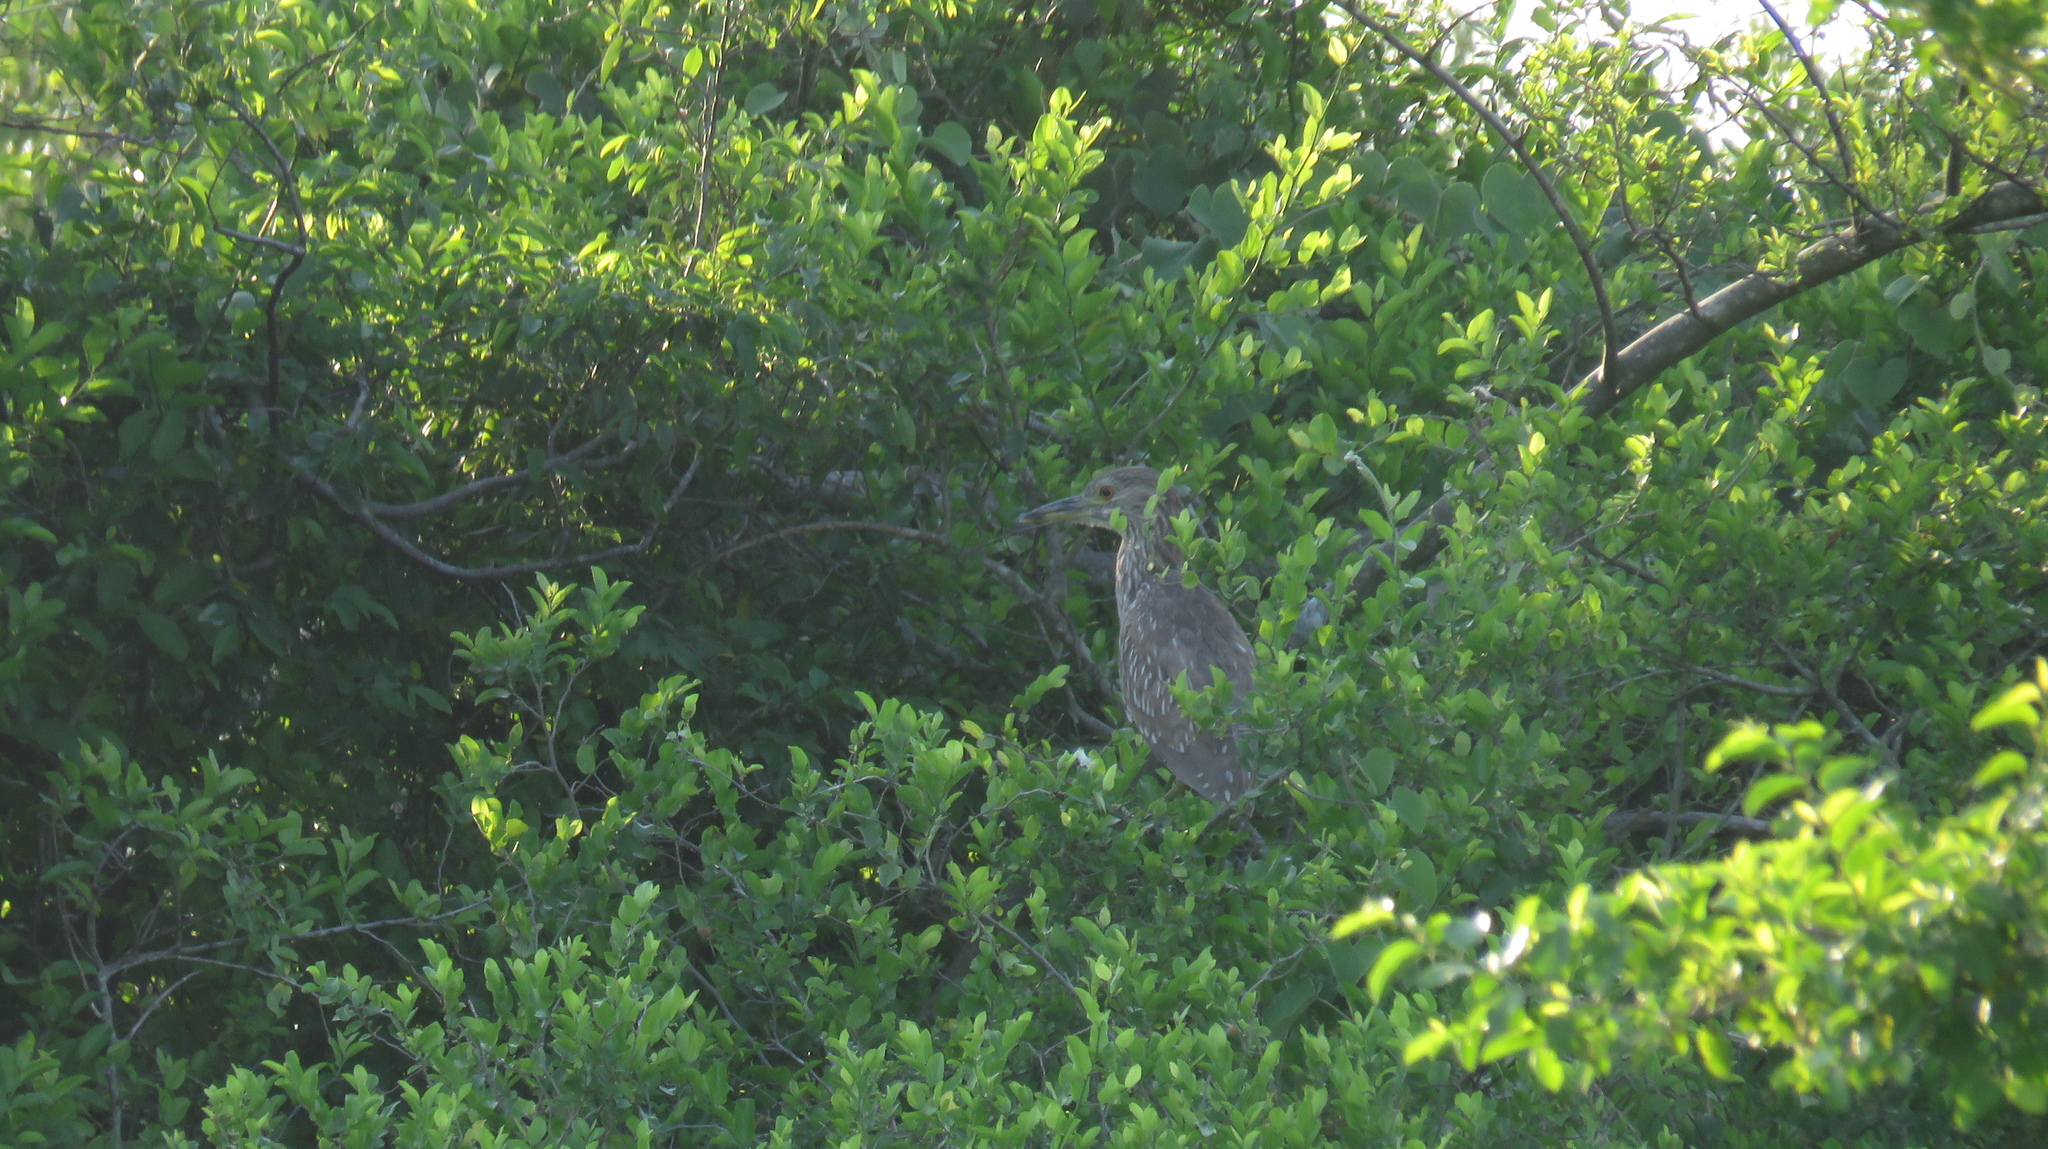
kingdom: Animalia
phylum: Chordata
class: Aves
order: Pelecaniformes
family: Ardeidae
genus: Nycticorax
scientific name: Nycticorax nycticorax
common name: Black-crowned night heron
